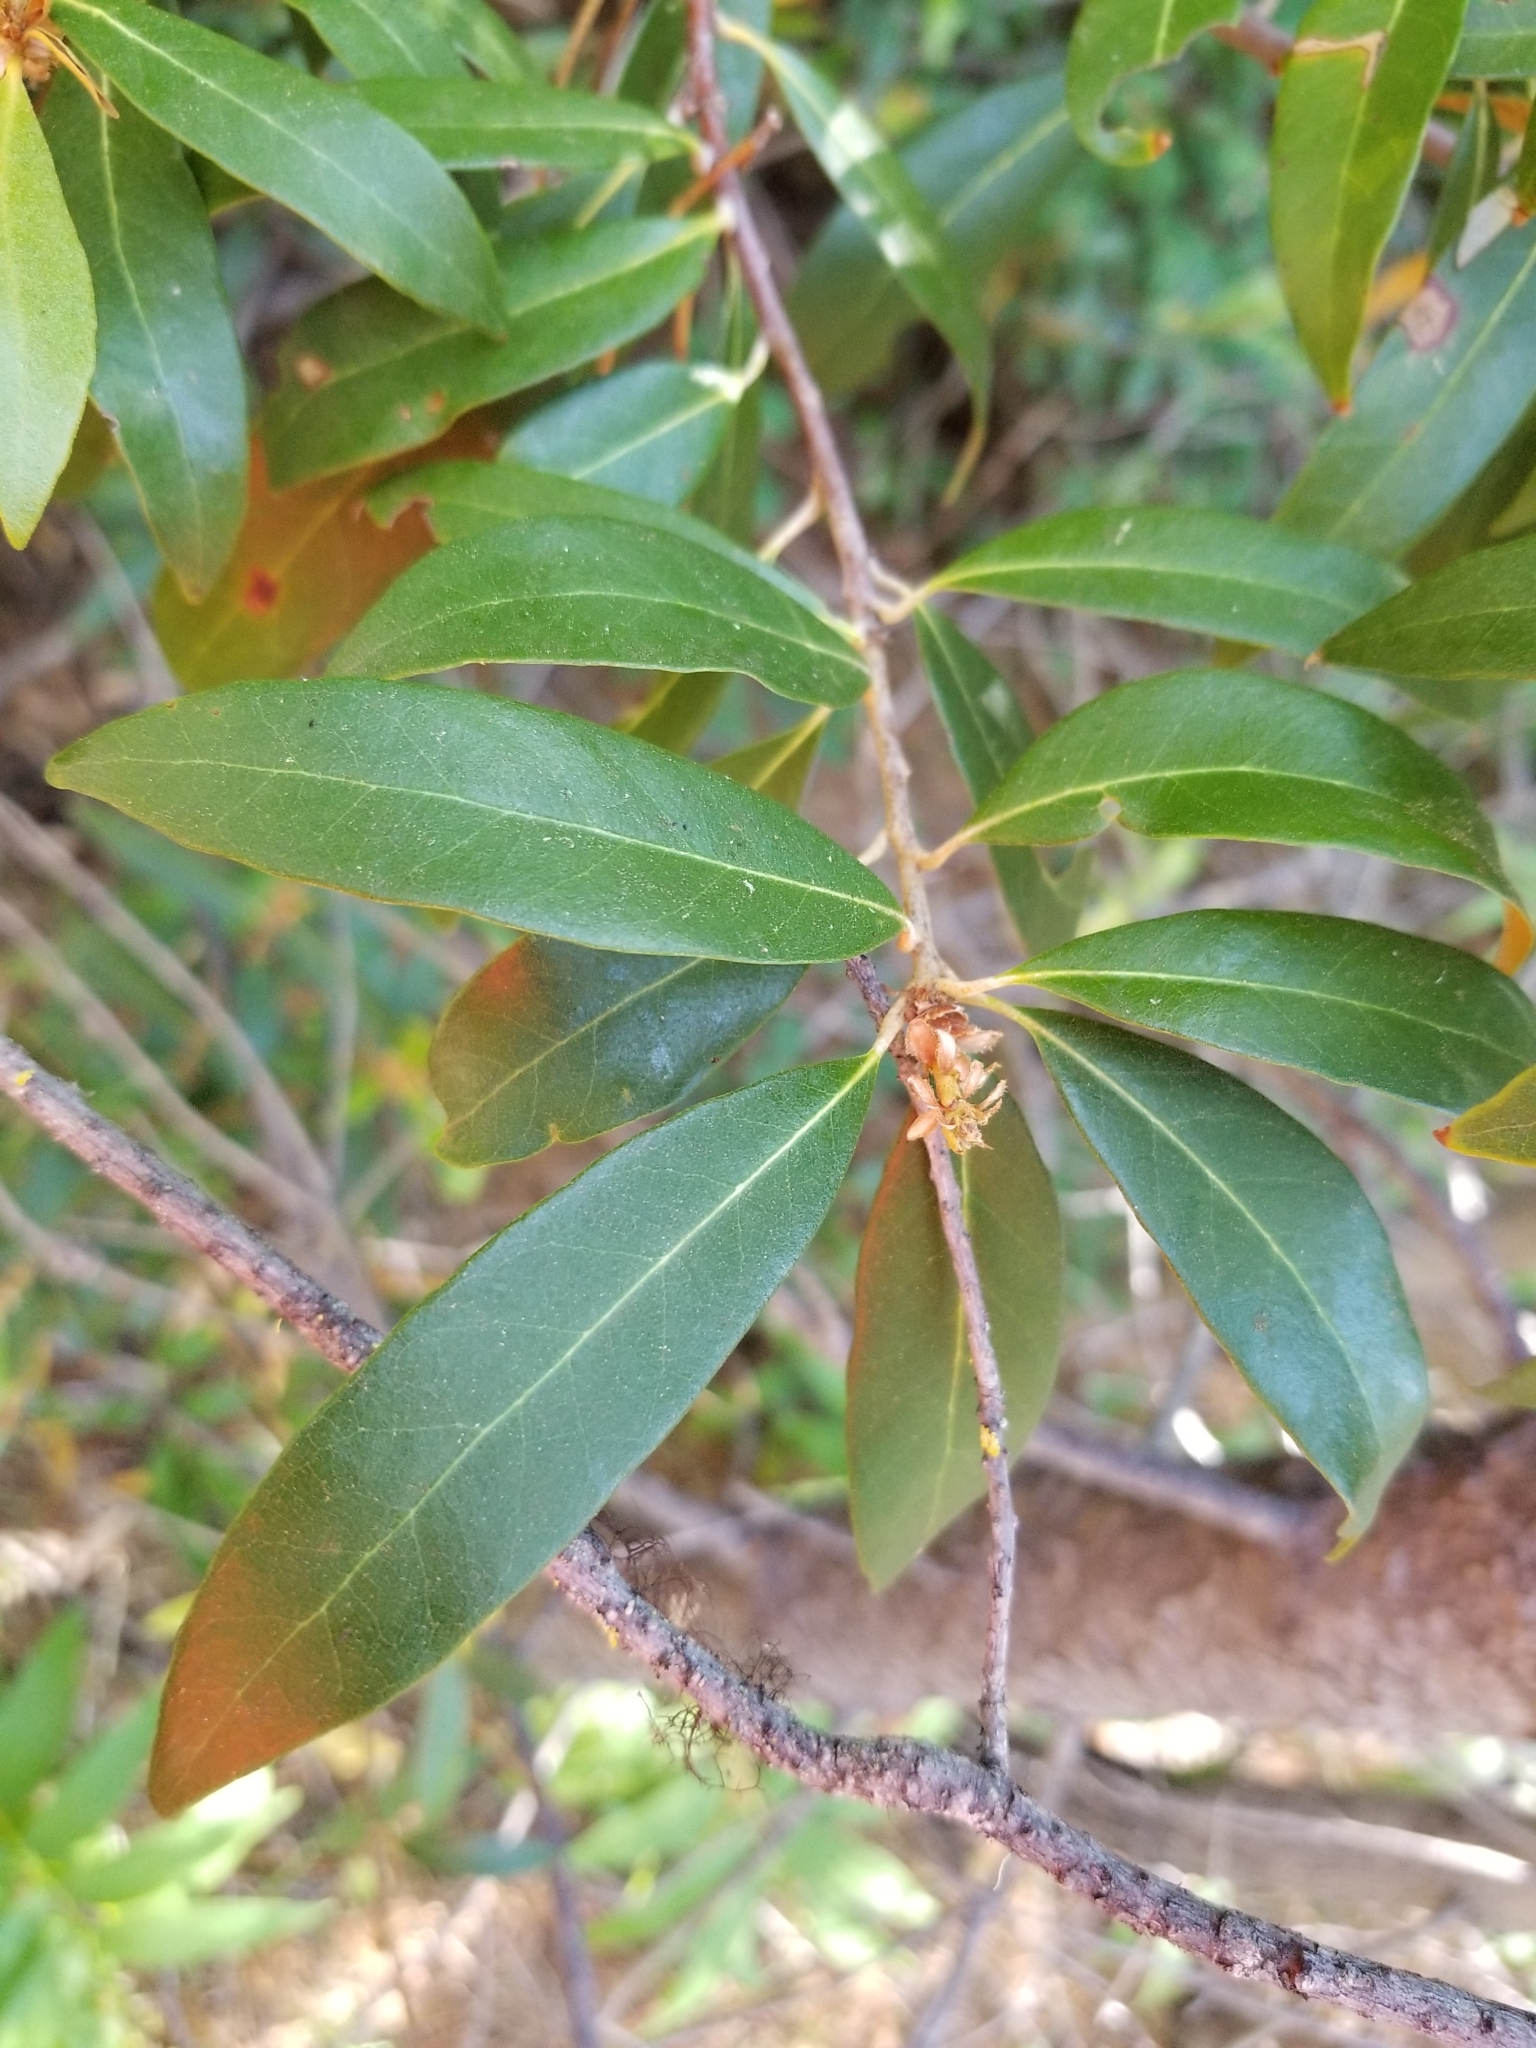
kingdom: Plantae
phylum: Tracheophyta
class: Magnoliopsida
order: Fagales
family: Fagaceae
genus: Chrysolepis
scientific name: Chrysolepis chrysophylla
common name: Giant chinquapin
